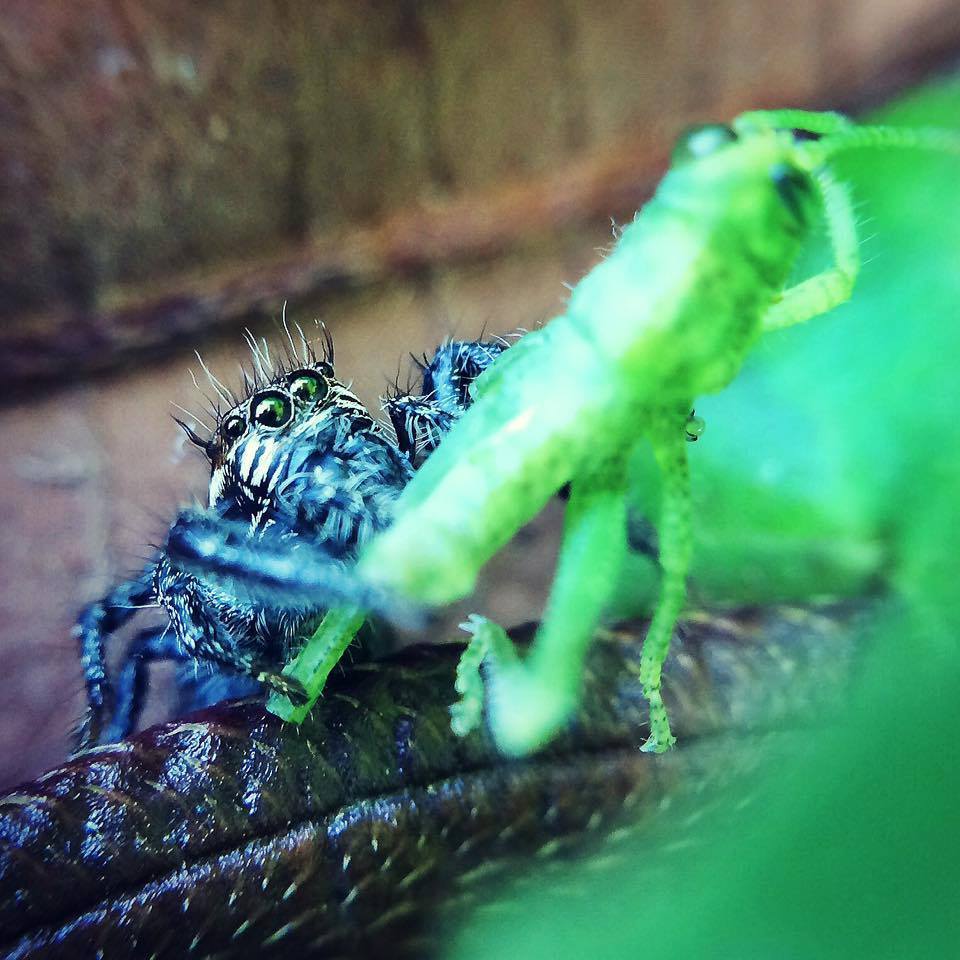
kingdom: Animalia
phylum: Arthropoda
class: Arachnida
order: Araneae
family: Salticidae
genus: Hyllus
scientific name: Hyllus argyrotoxus
